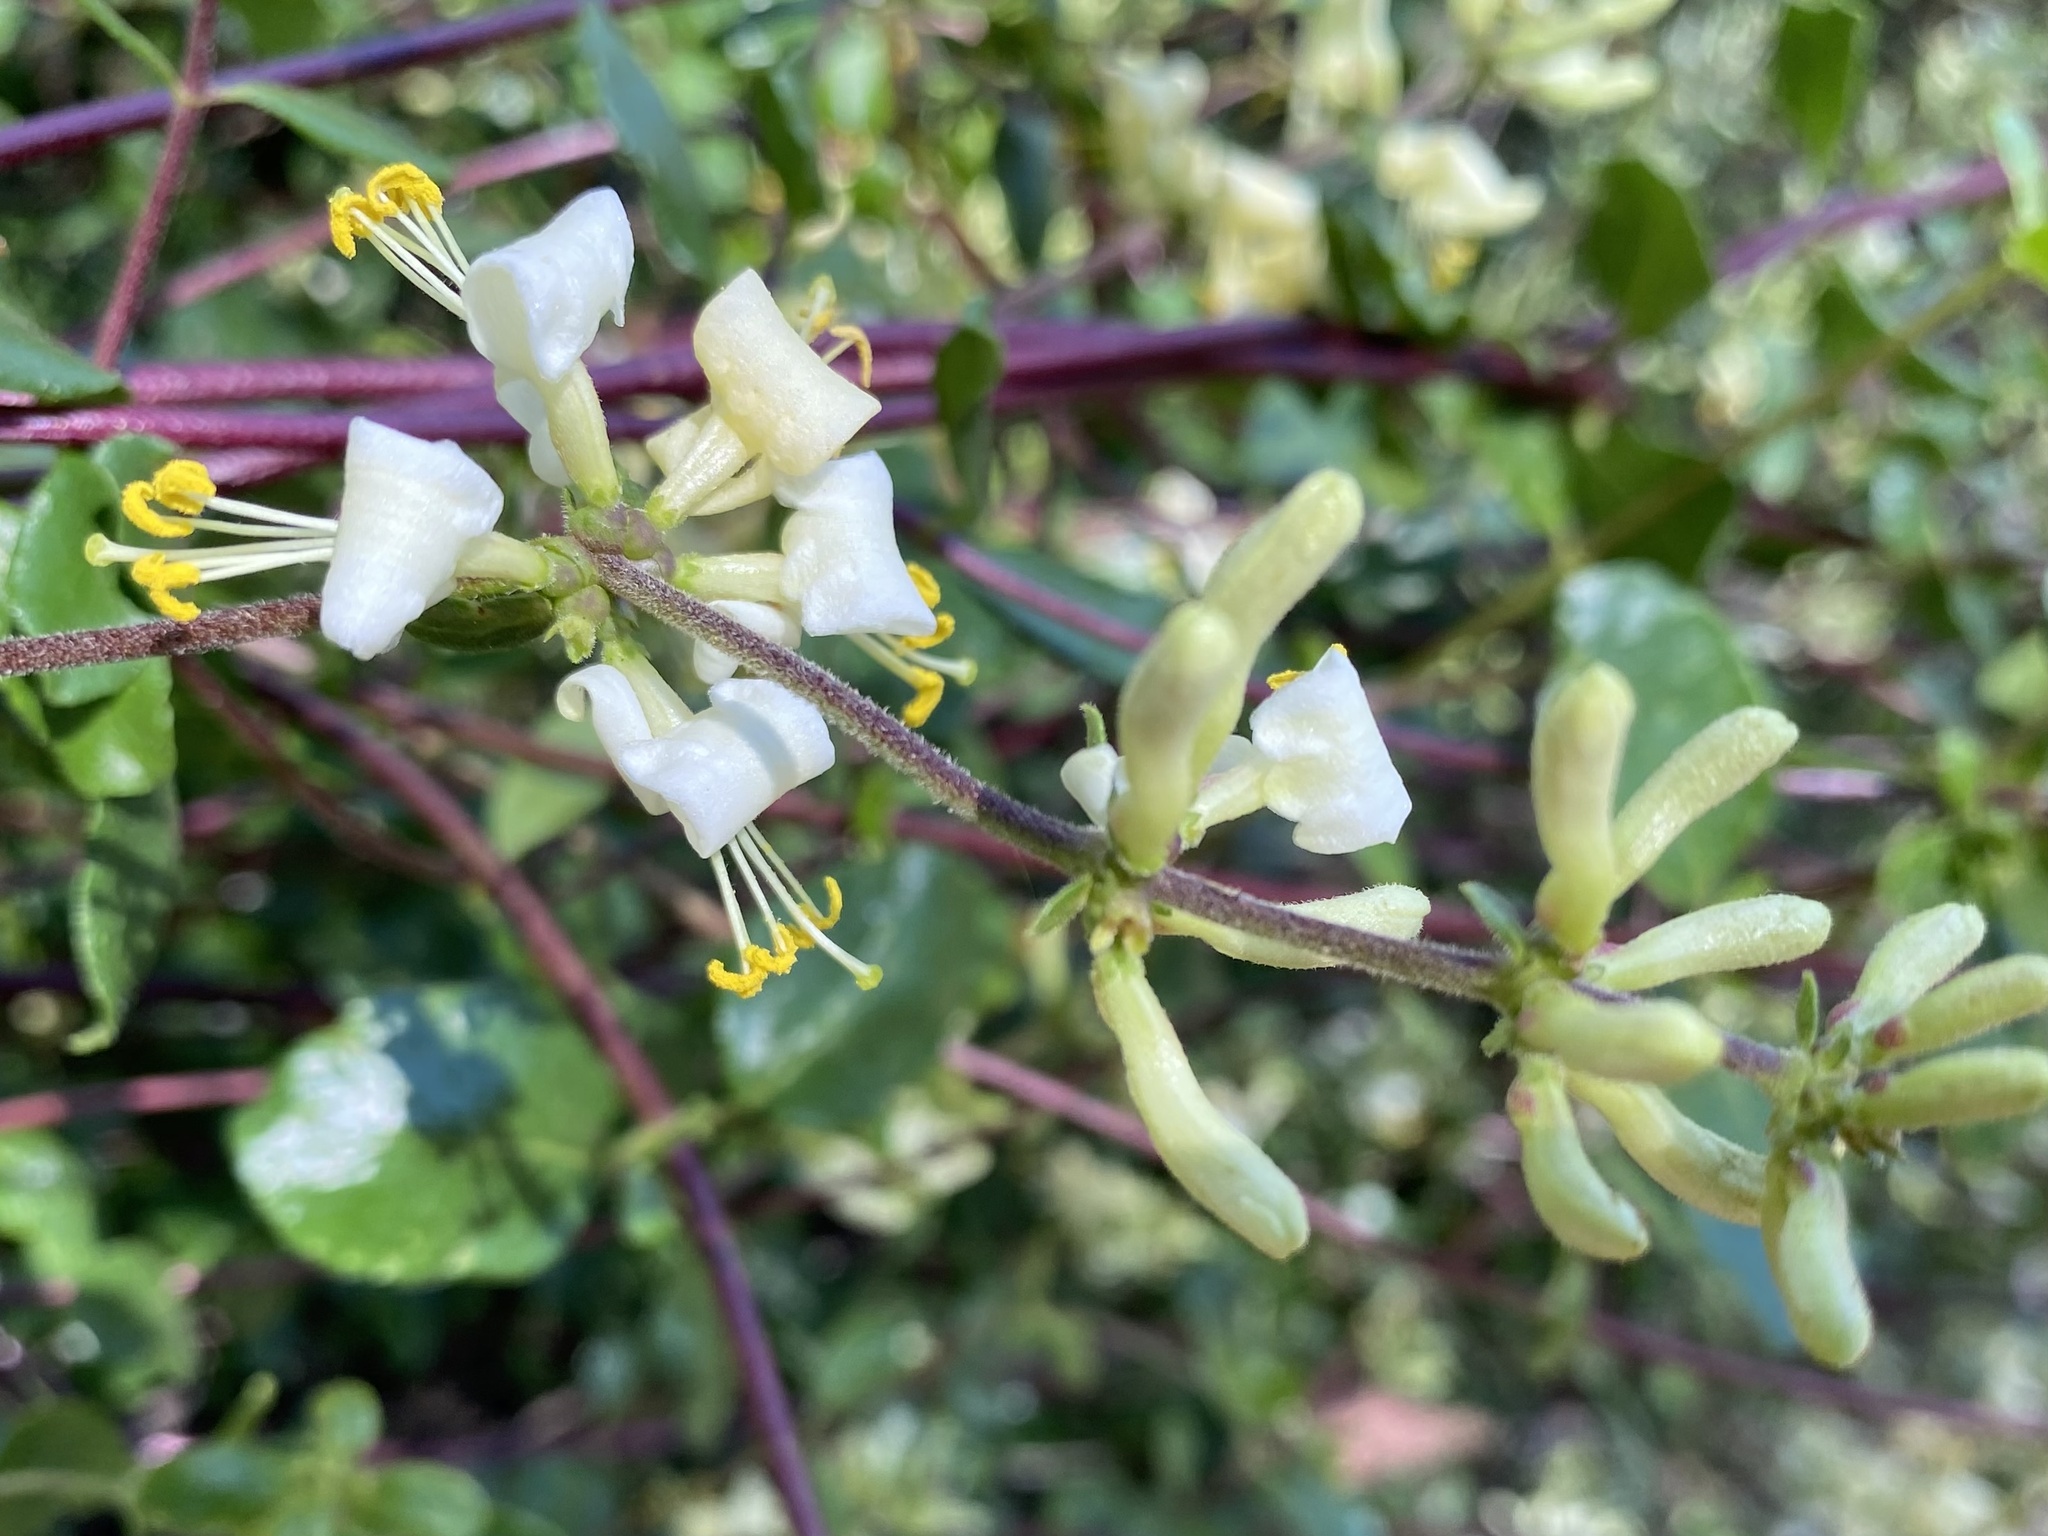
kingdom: Plantae
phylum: Tracheophyta
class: Magnoliopsida
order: Dipsacales
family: Caprifoliaceae
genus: Lonicera
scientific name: Lonicera subspicata
